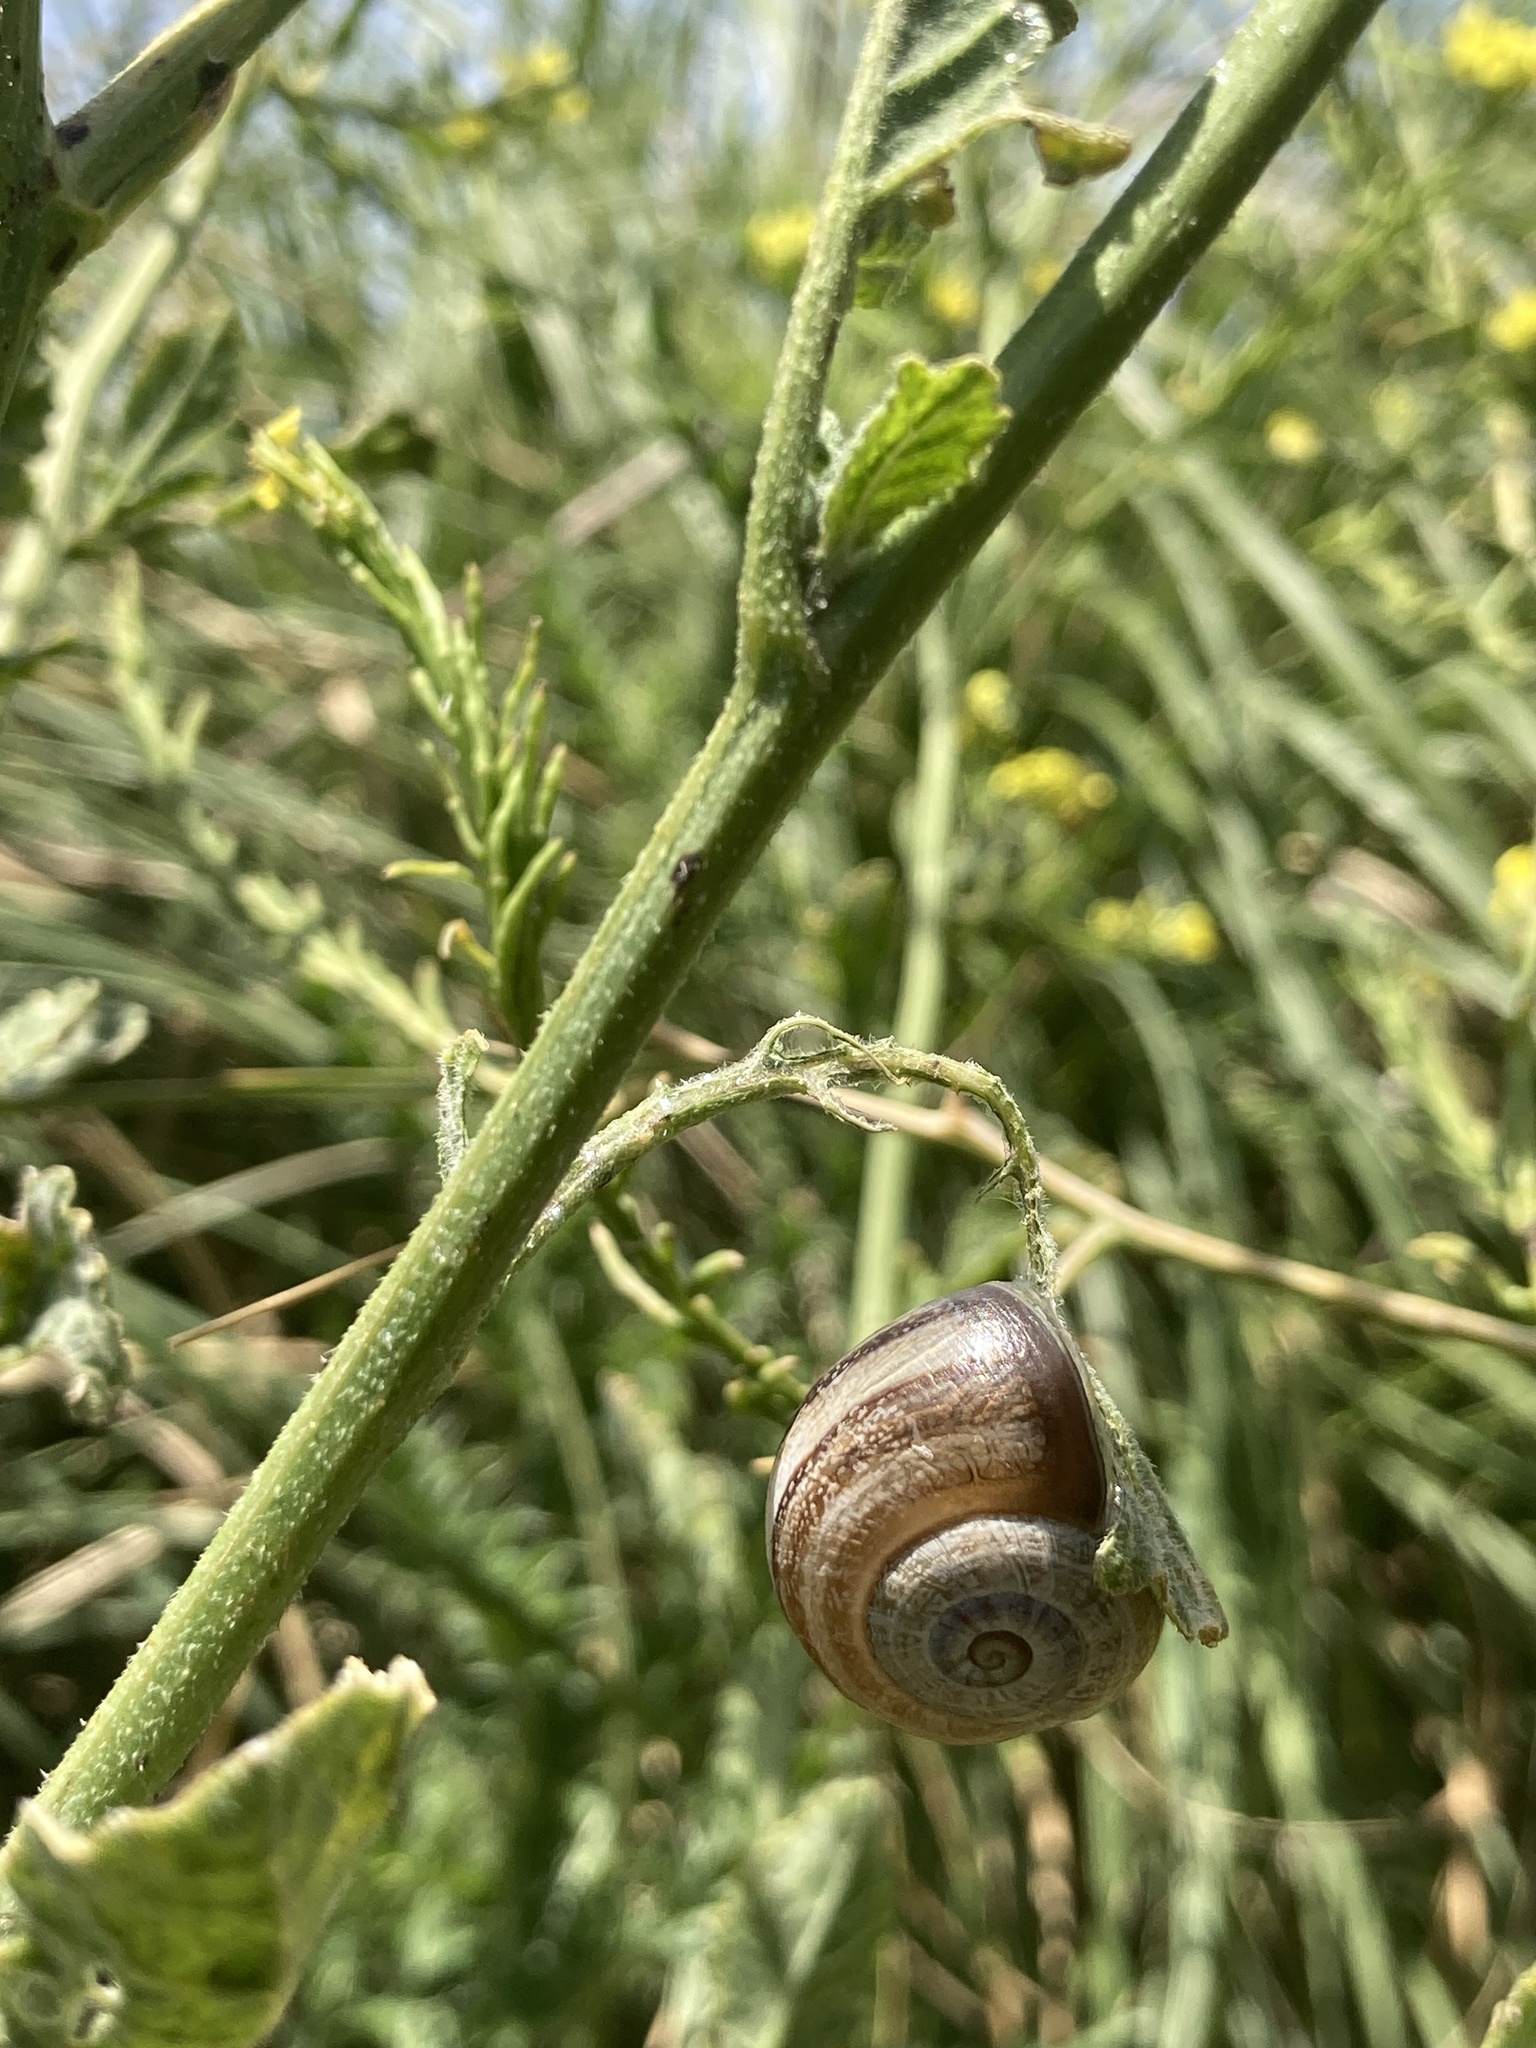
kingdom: Animalia
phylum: Mollusca
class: Gastropoda
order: Stylommatophora
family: Helicidae
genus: Otala
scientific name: Otala punctata
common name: Milk snail
